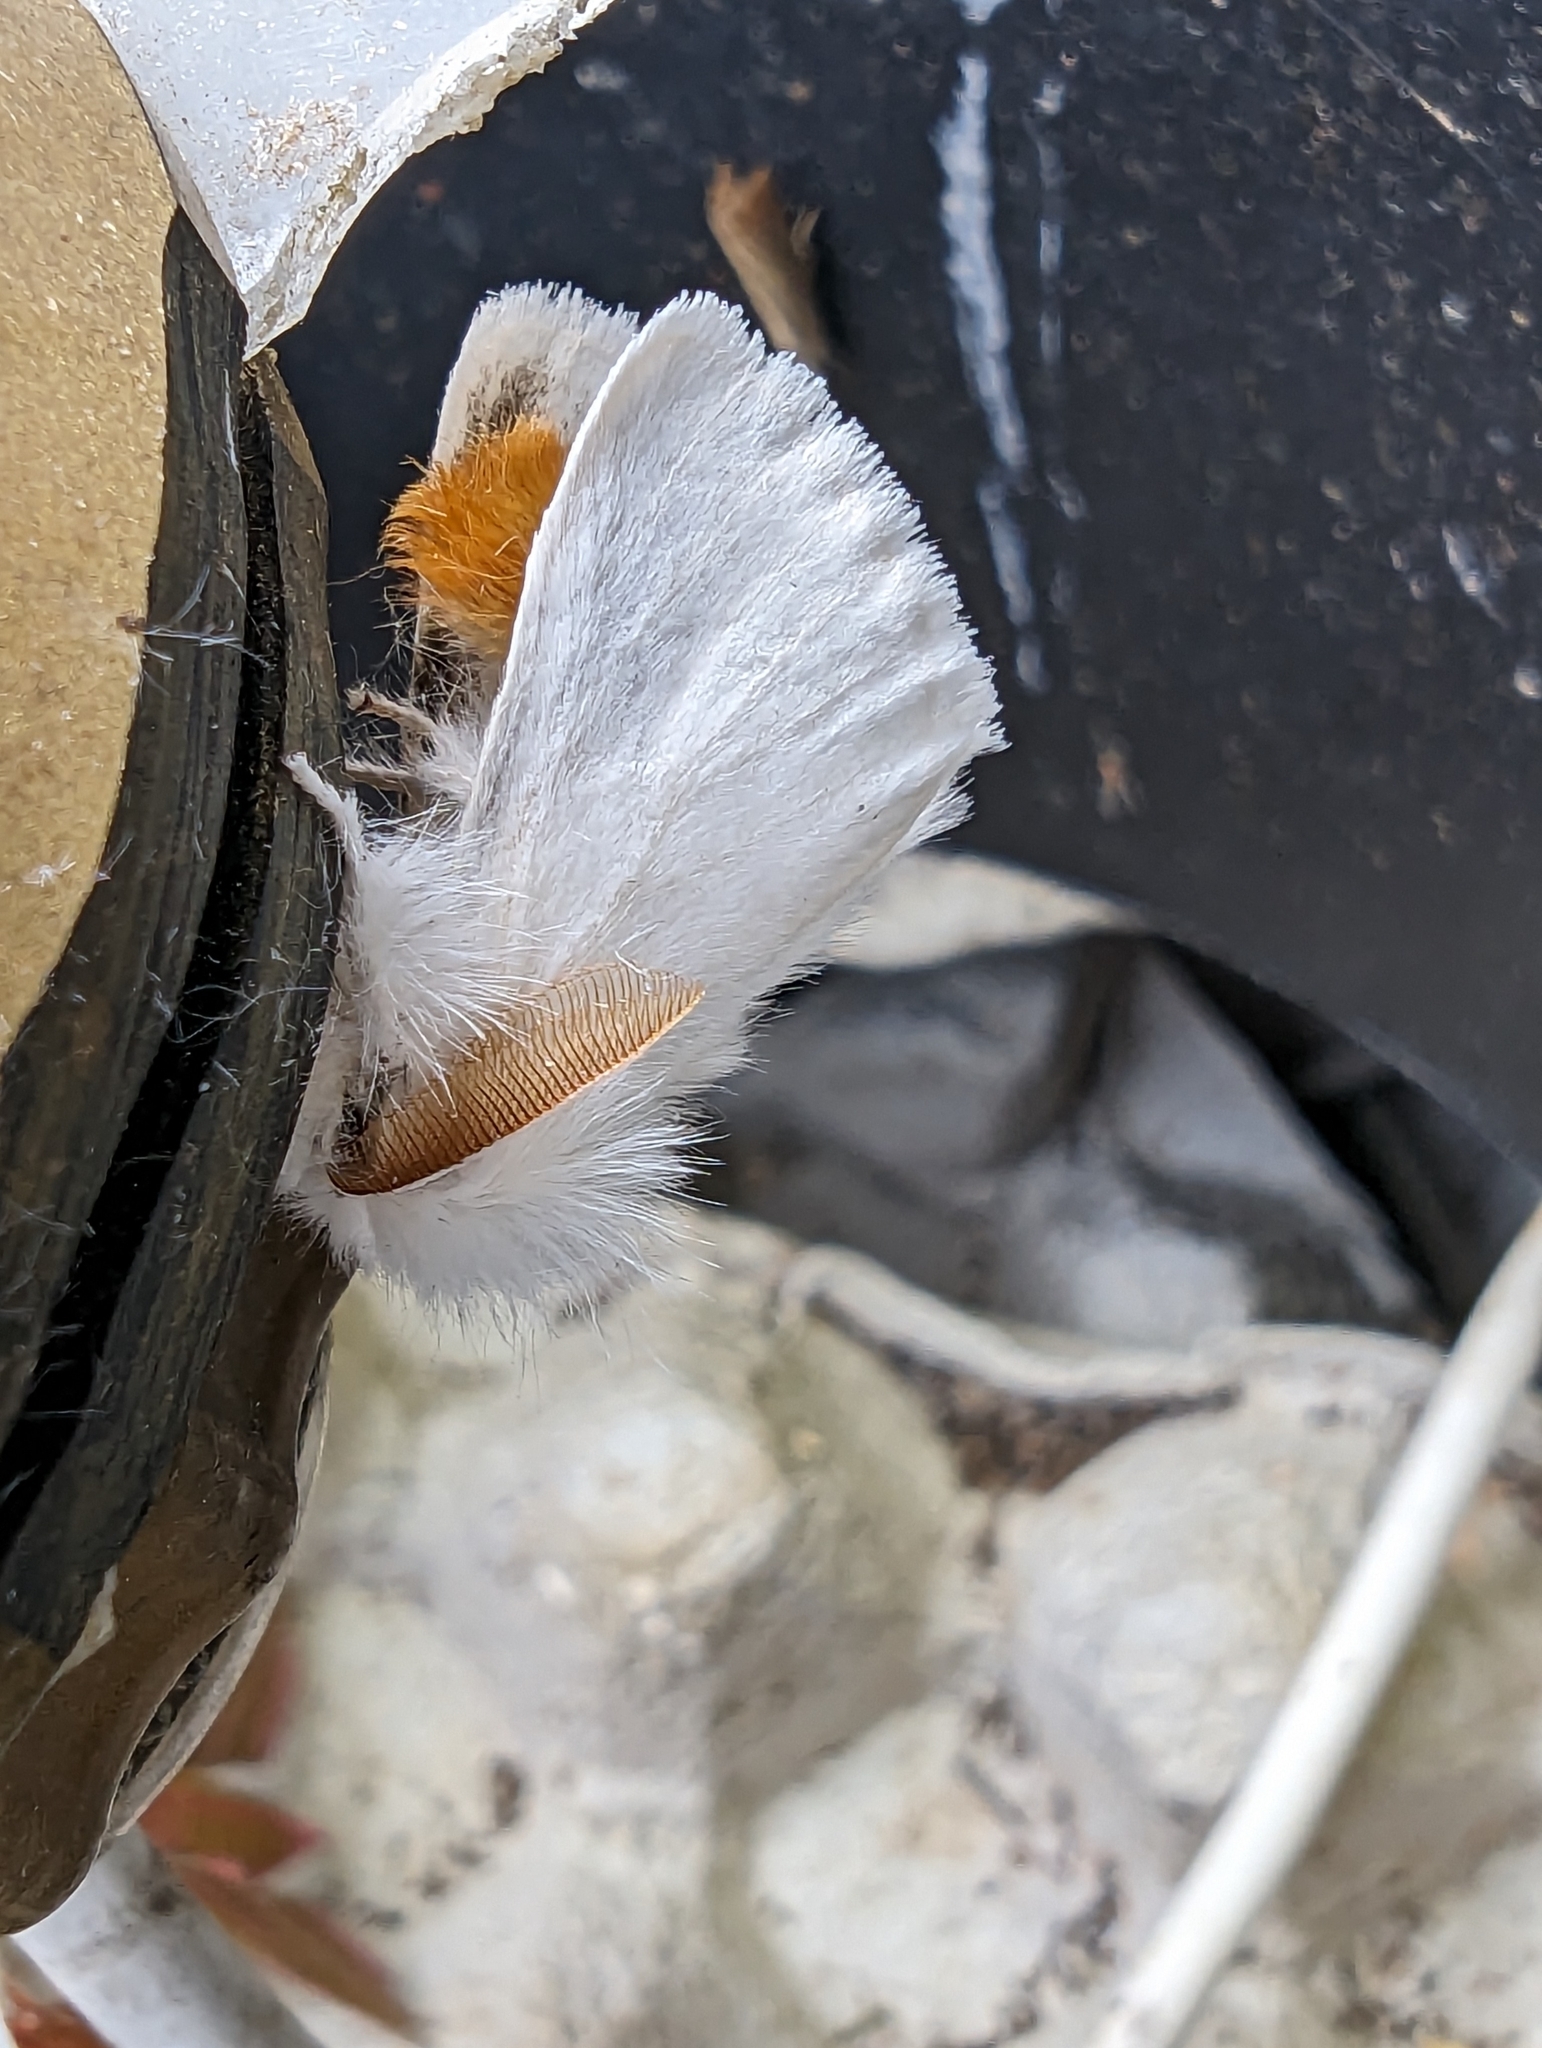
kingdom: Animalia
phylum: Arthropoda
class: Insecta
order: Lepidoptera
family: Erebidae
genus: Euproctis
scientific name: Euproctis chrysorrhoea
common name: Brown-tail
